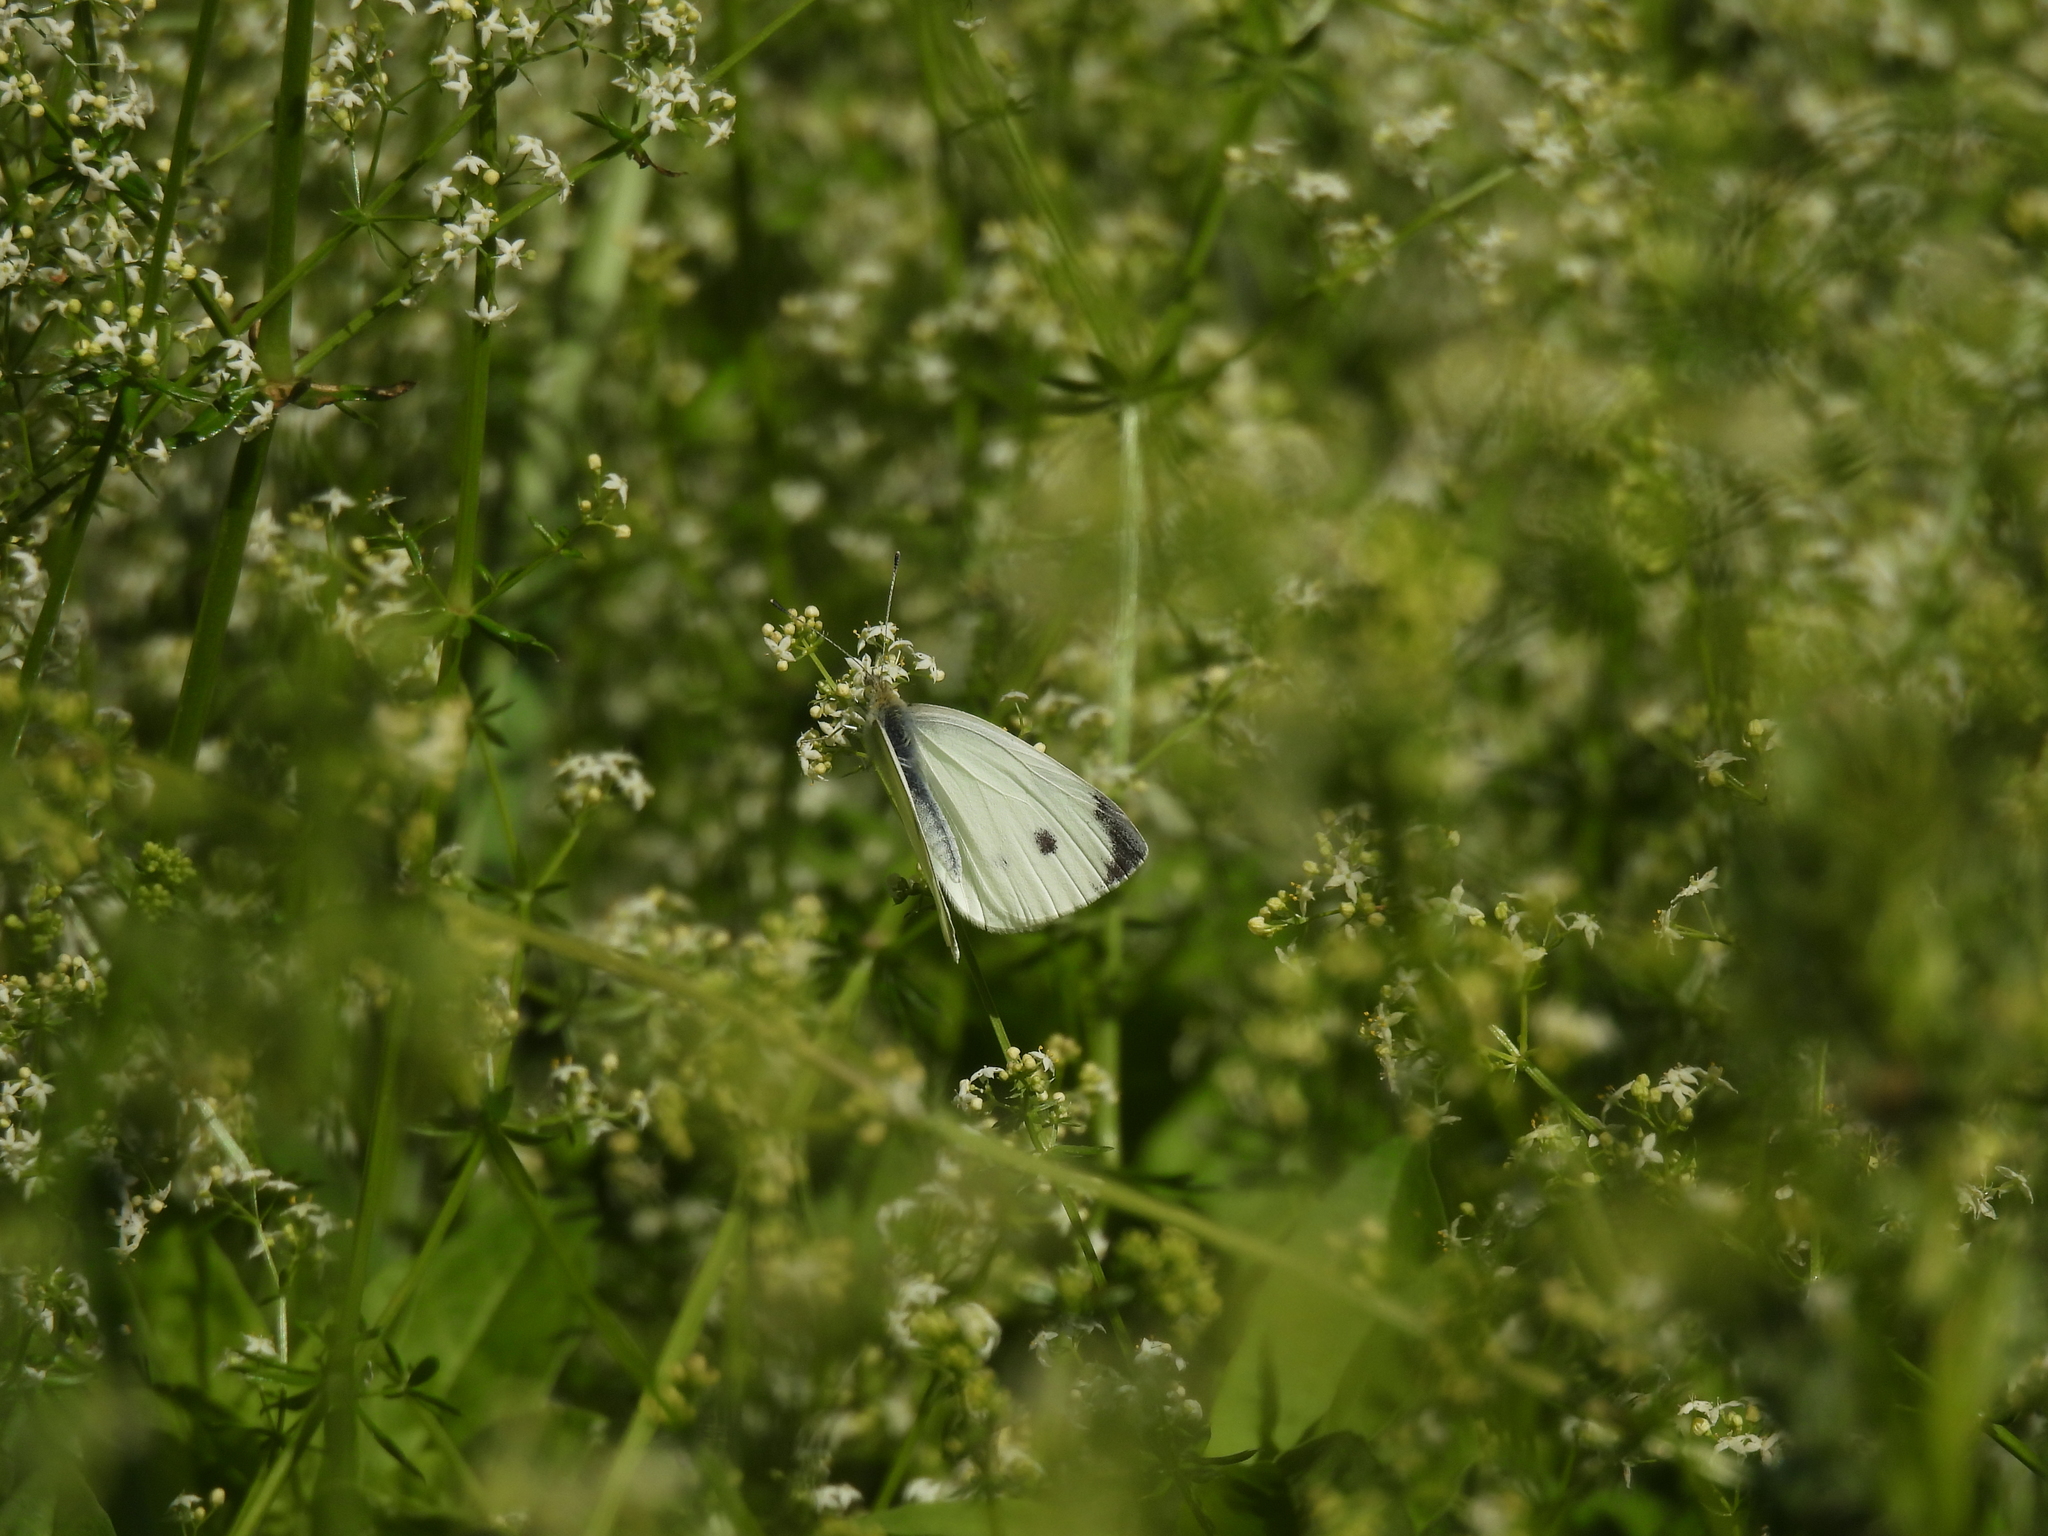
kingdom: Animalia
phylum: Arthropoda
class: Insecta
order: Lepidoptera
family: Pieridae
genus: Pieris
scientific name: Pieris rapae
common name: Small white
